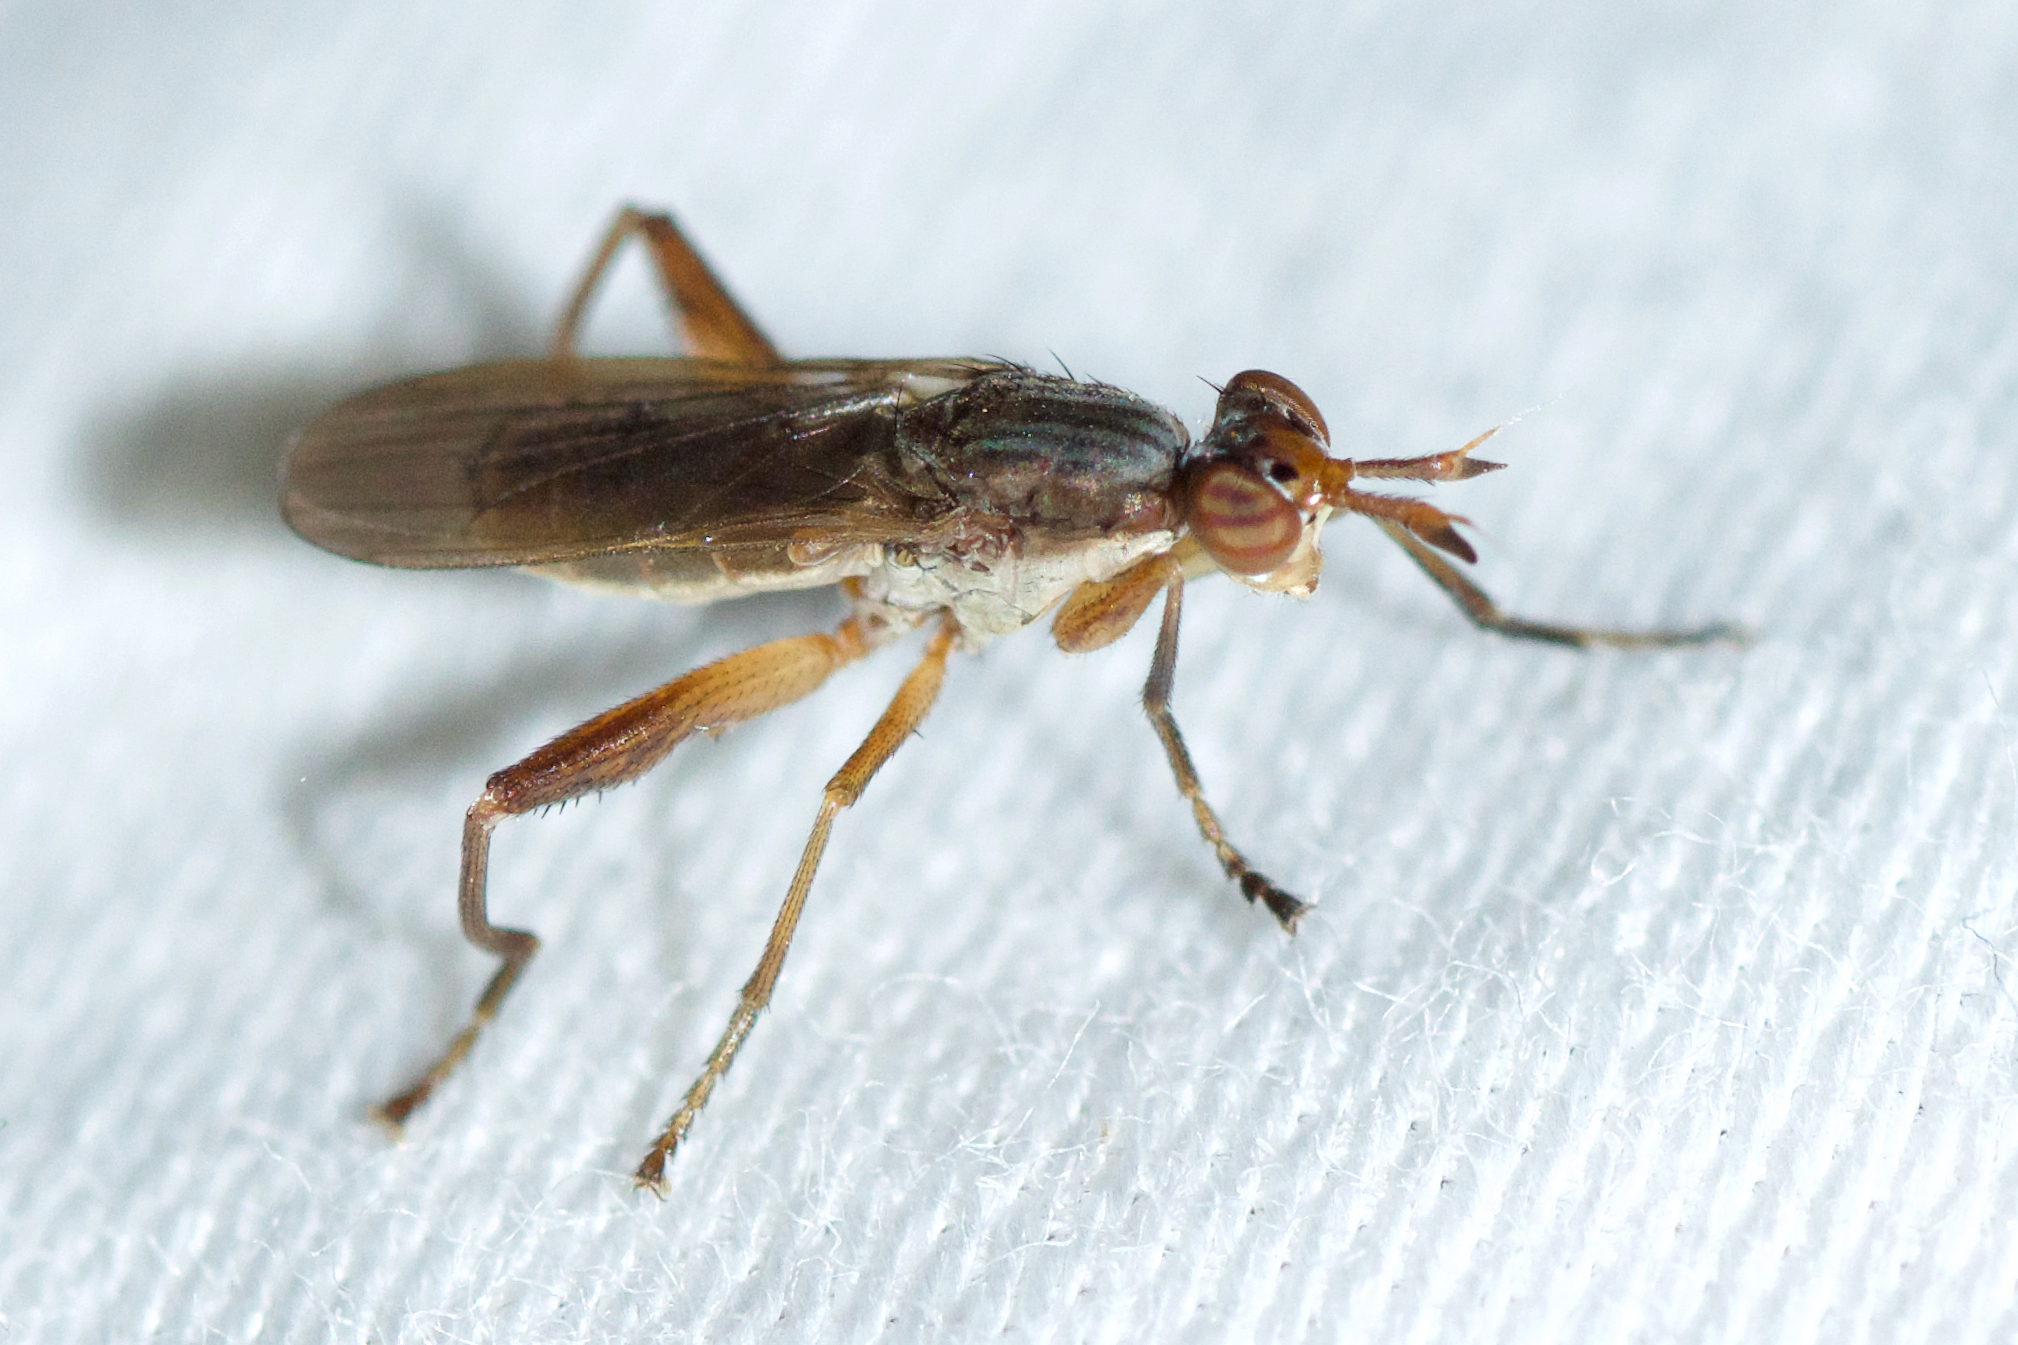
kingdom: Animalia
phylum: Arthropoda
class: Insecta
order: Diptera
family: Sciomyzidae
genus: Sepedon
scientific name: Sepedon armipes
